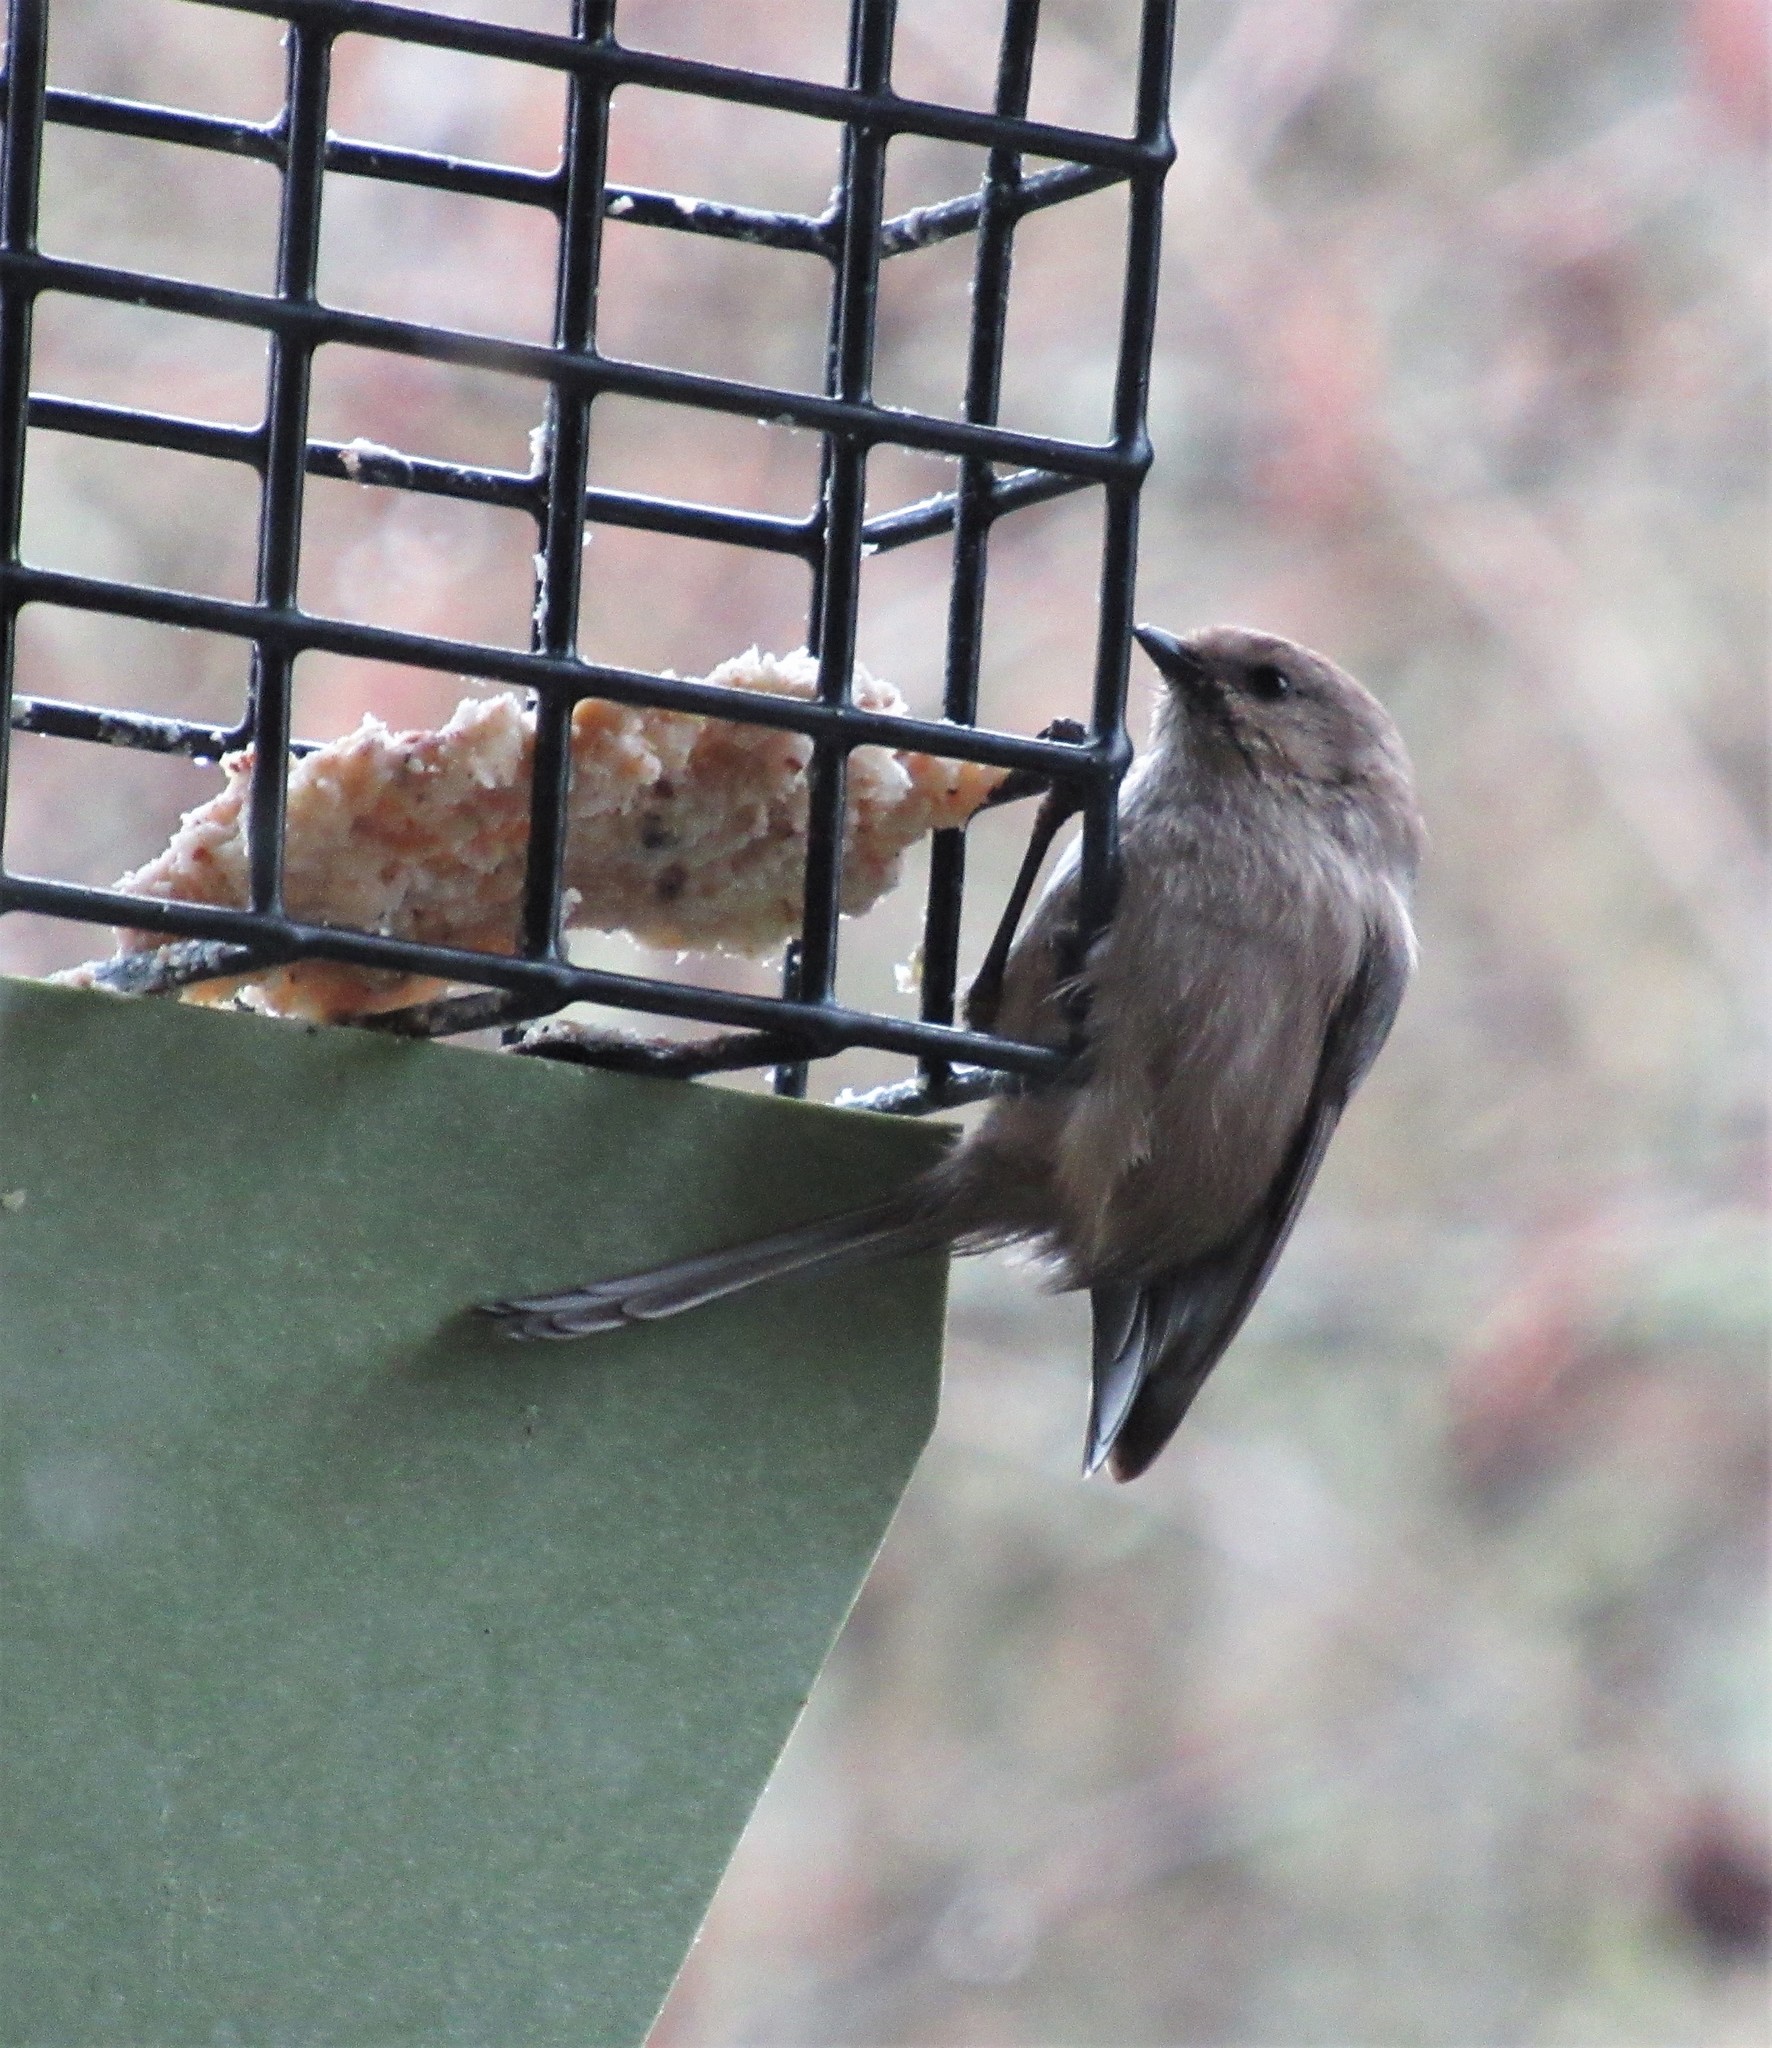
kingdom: Animalia
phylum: Chordata
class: Aves
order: Passeriformes
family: Aegithalidae
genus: Psaltriparus
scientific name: Psaltriparus minimus
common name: American bushtit
